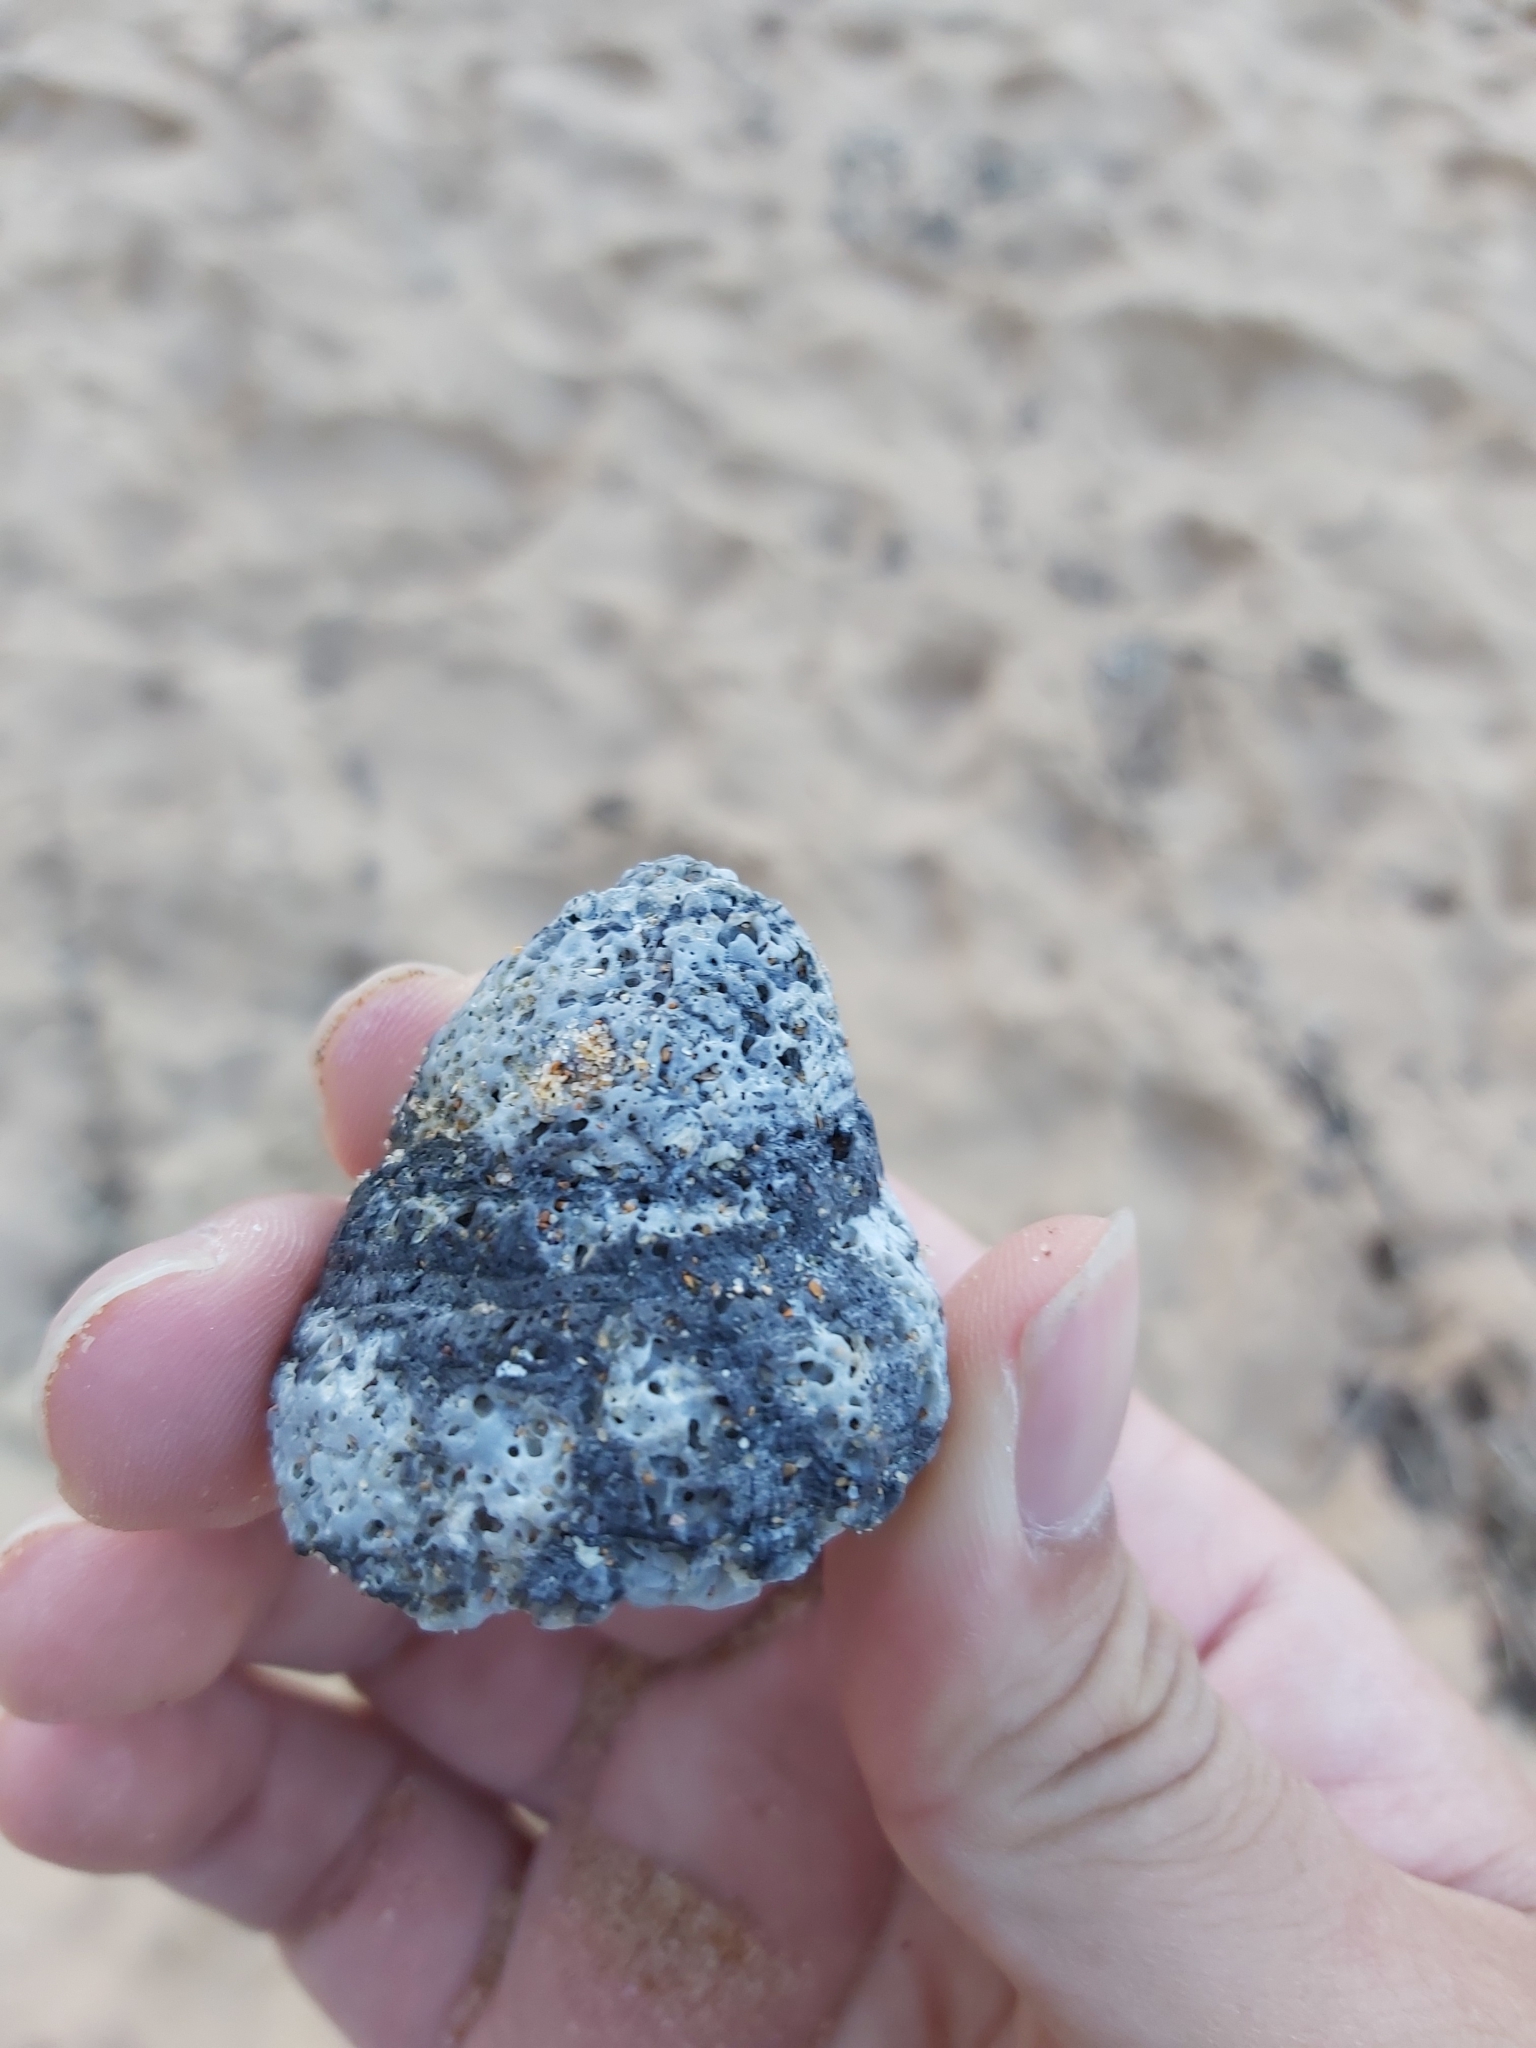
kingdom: Animalia
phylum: Mollusca
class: Gastropoda
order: Littorinimorpha
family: Cymatiidae
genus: Cabestana
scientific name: Cabestana spengleri
